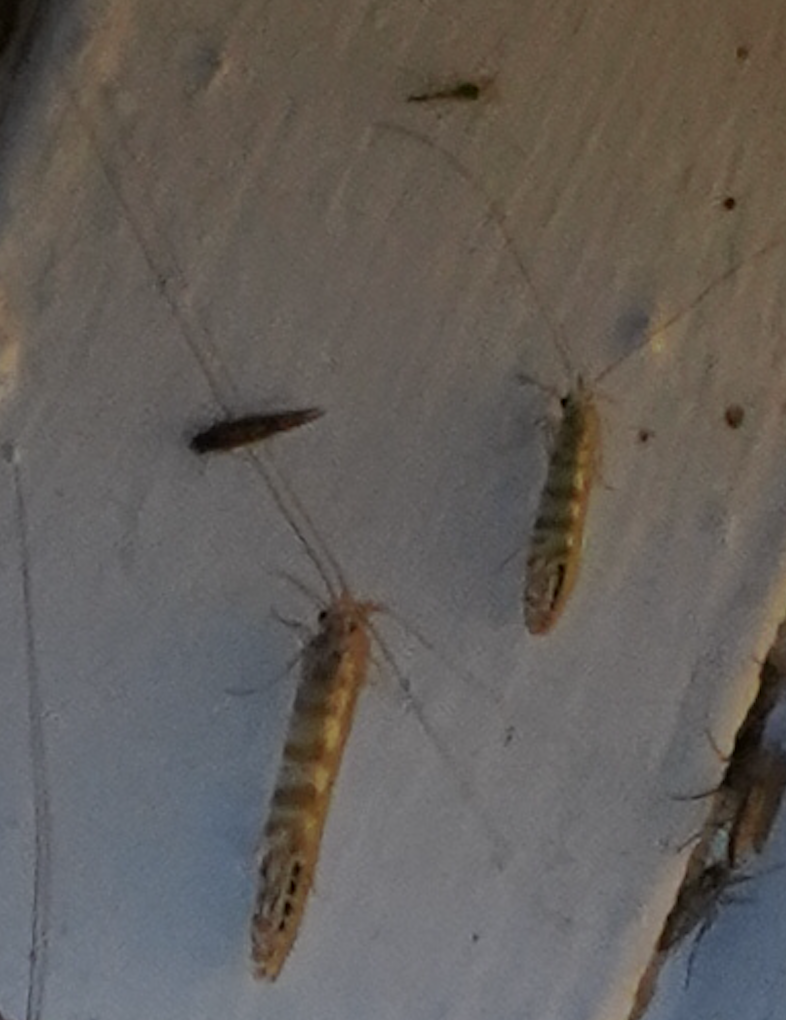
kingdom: Animalia
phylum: Arthropoda
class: Insecta
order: Trichoptera
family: Leptoceridae
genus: Nectopsyche
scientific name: Nectopsyche exquisita
